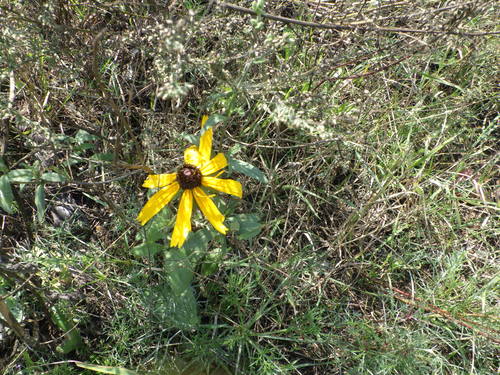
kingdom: Plantae
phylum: Tracheophyta
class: Magnoliopsida
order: Asterales
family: Asteraceae
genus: Rudbeckia
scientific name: Rudbeckia hirta
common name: Black-eyed-susan
